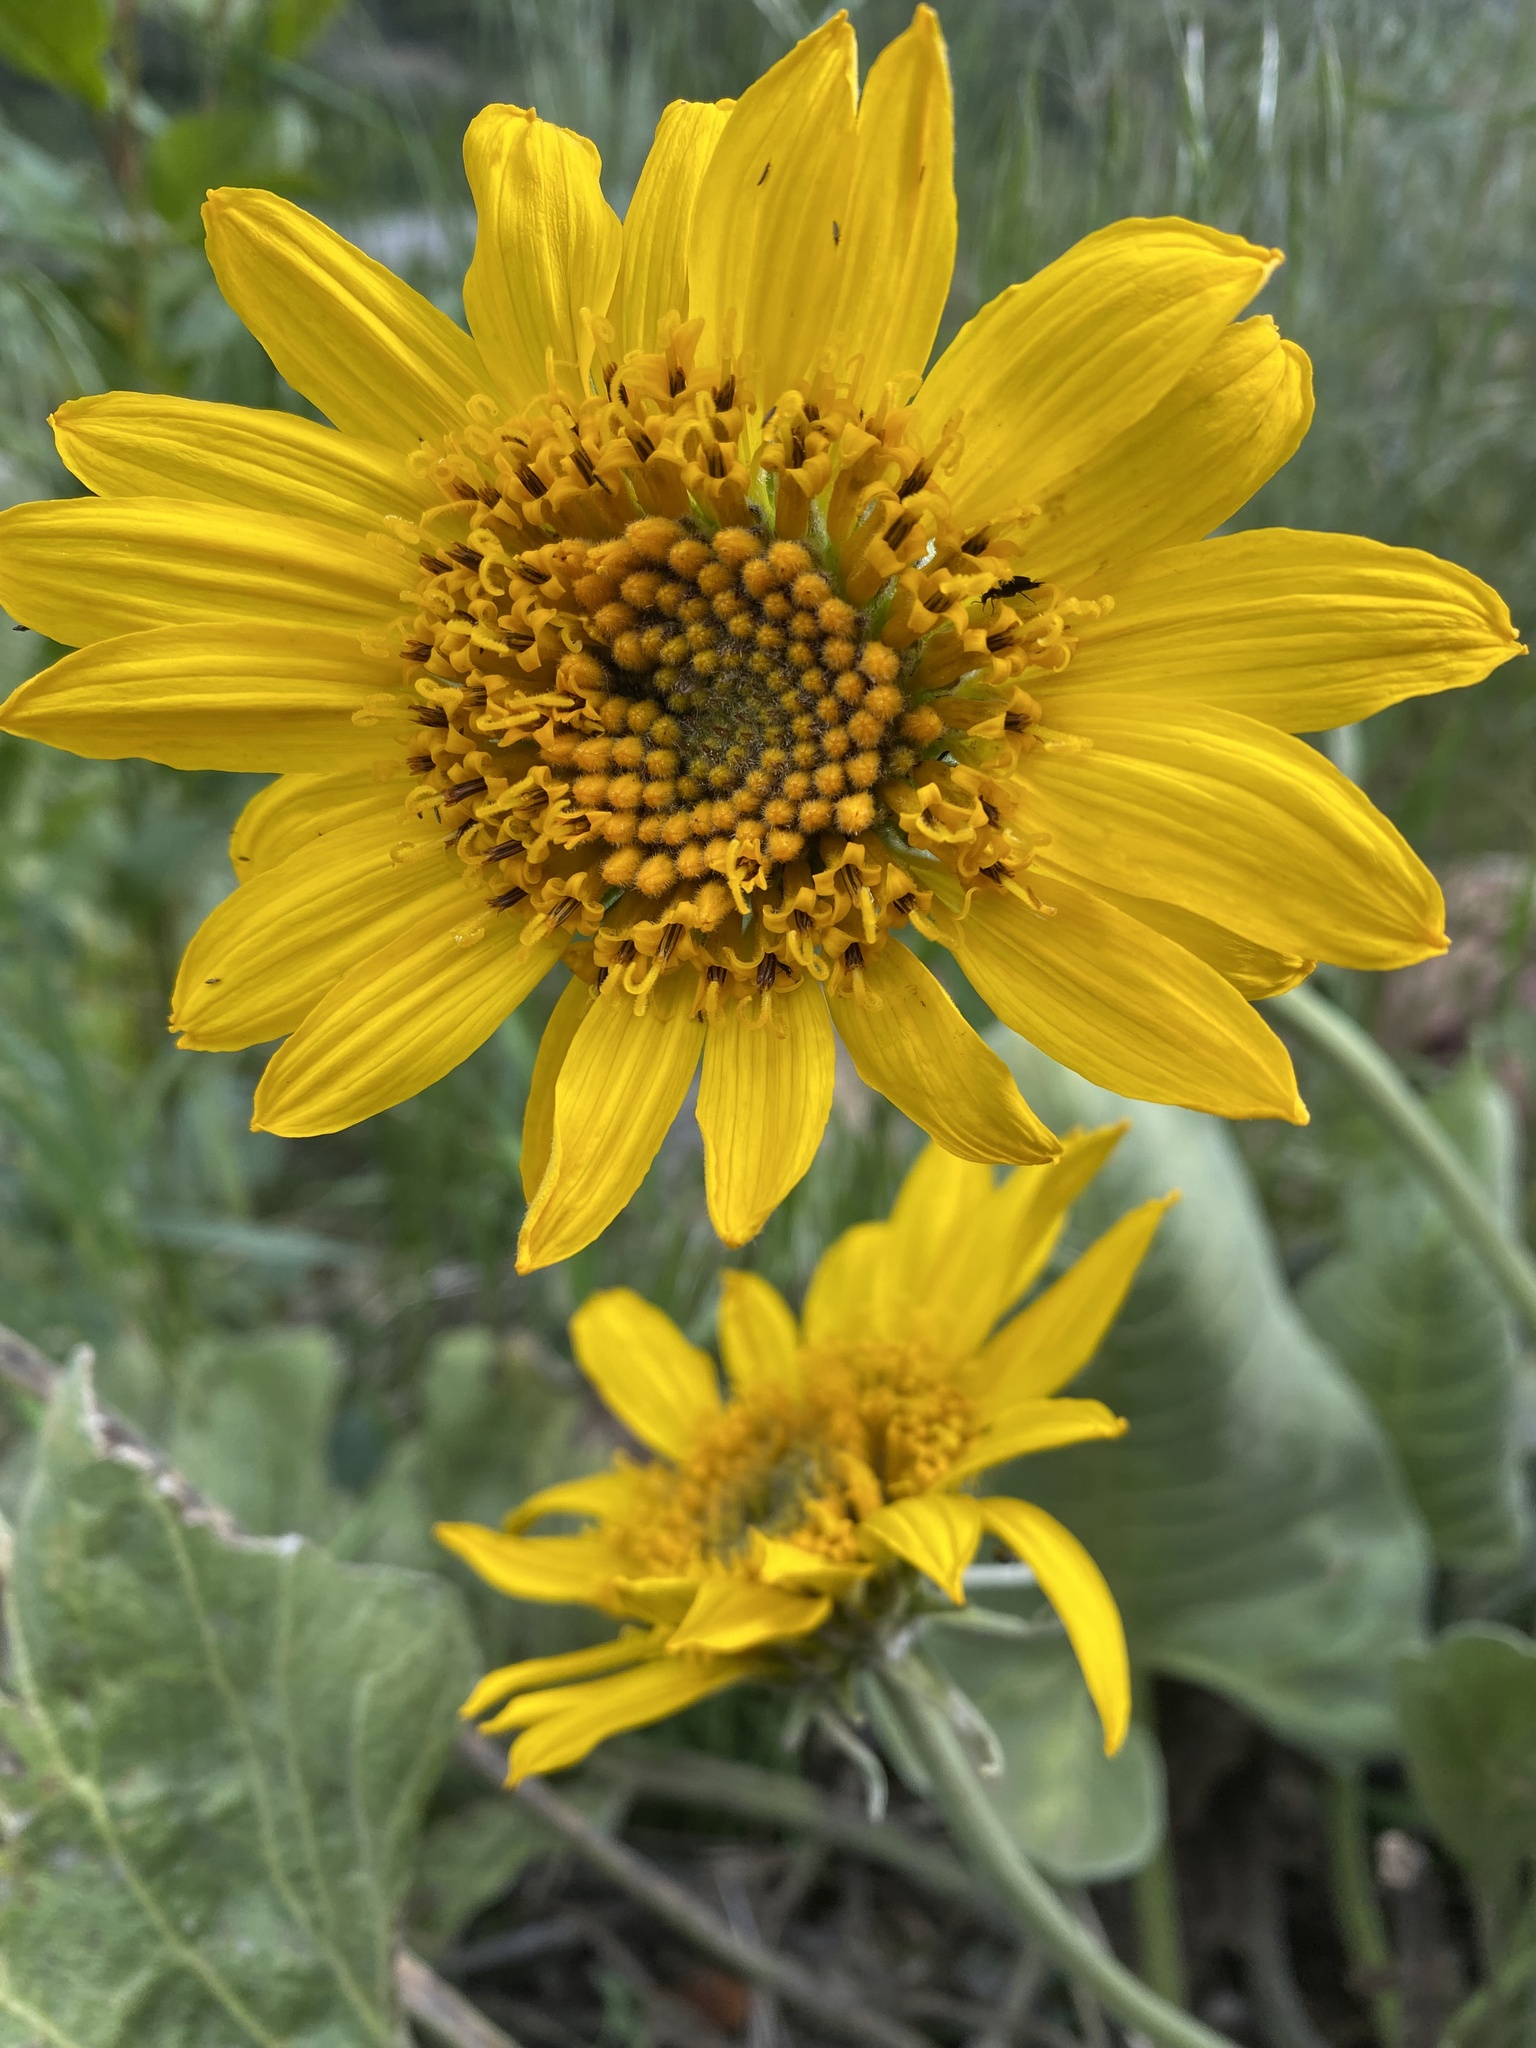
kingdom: Plantae
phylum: Tracheophyta
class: Magnoliopsida
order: Asterales
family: Asteraceae
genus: Wyethia
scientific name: Wyethia sagittata
